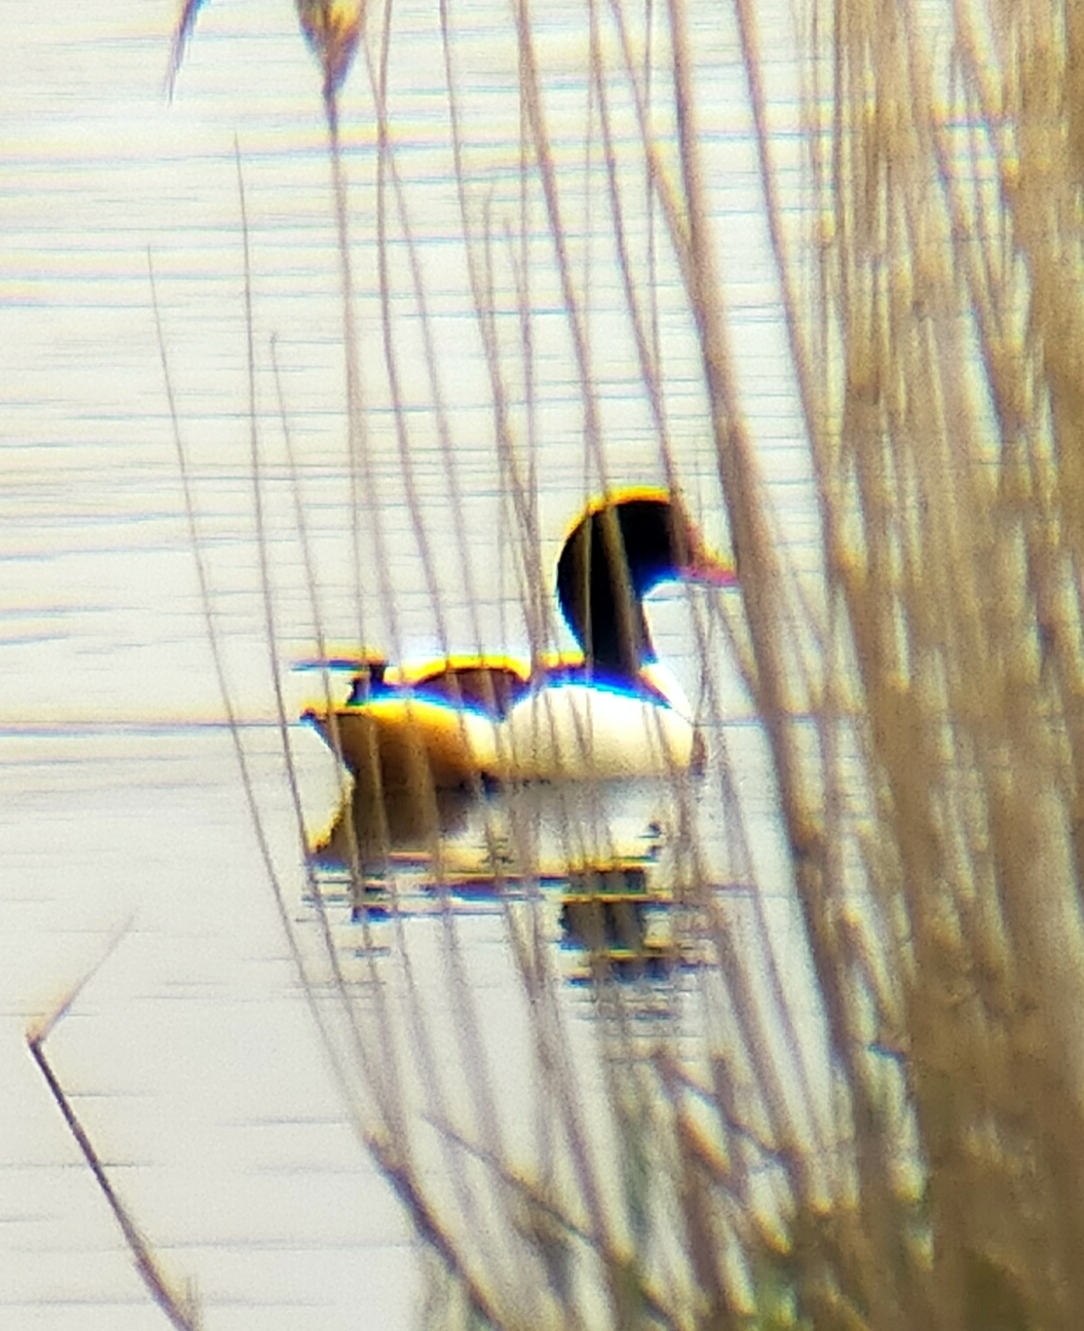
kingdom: Animalia
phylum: Chordata
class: Aves
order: Anseriformes
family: Anatidae
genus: Tadorna
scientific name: Tadorna tadorna
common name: Common shelduck
